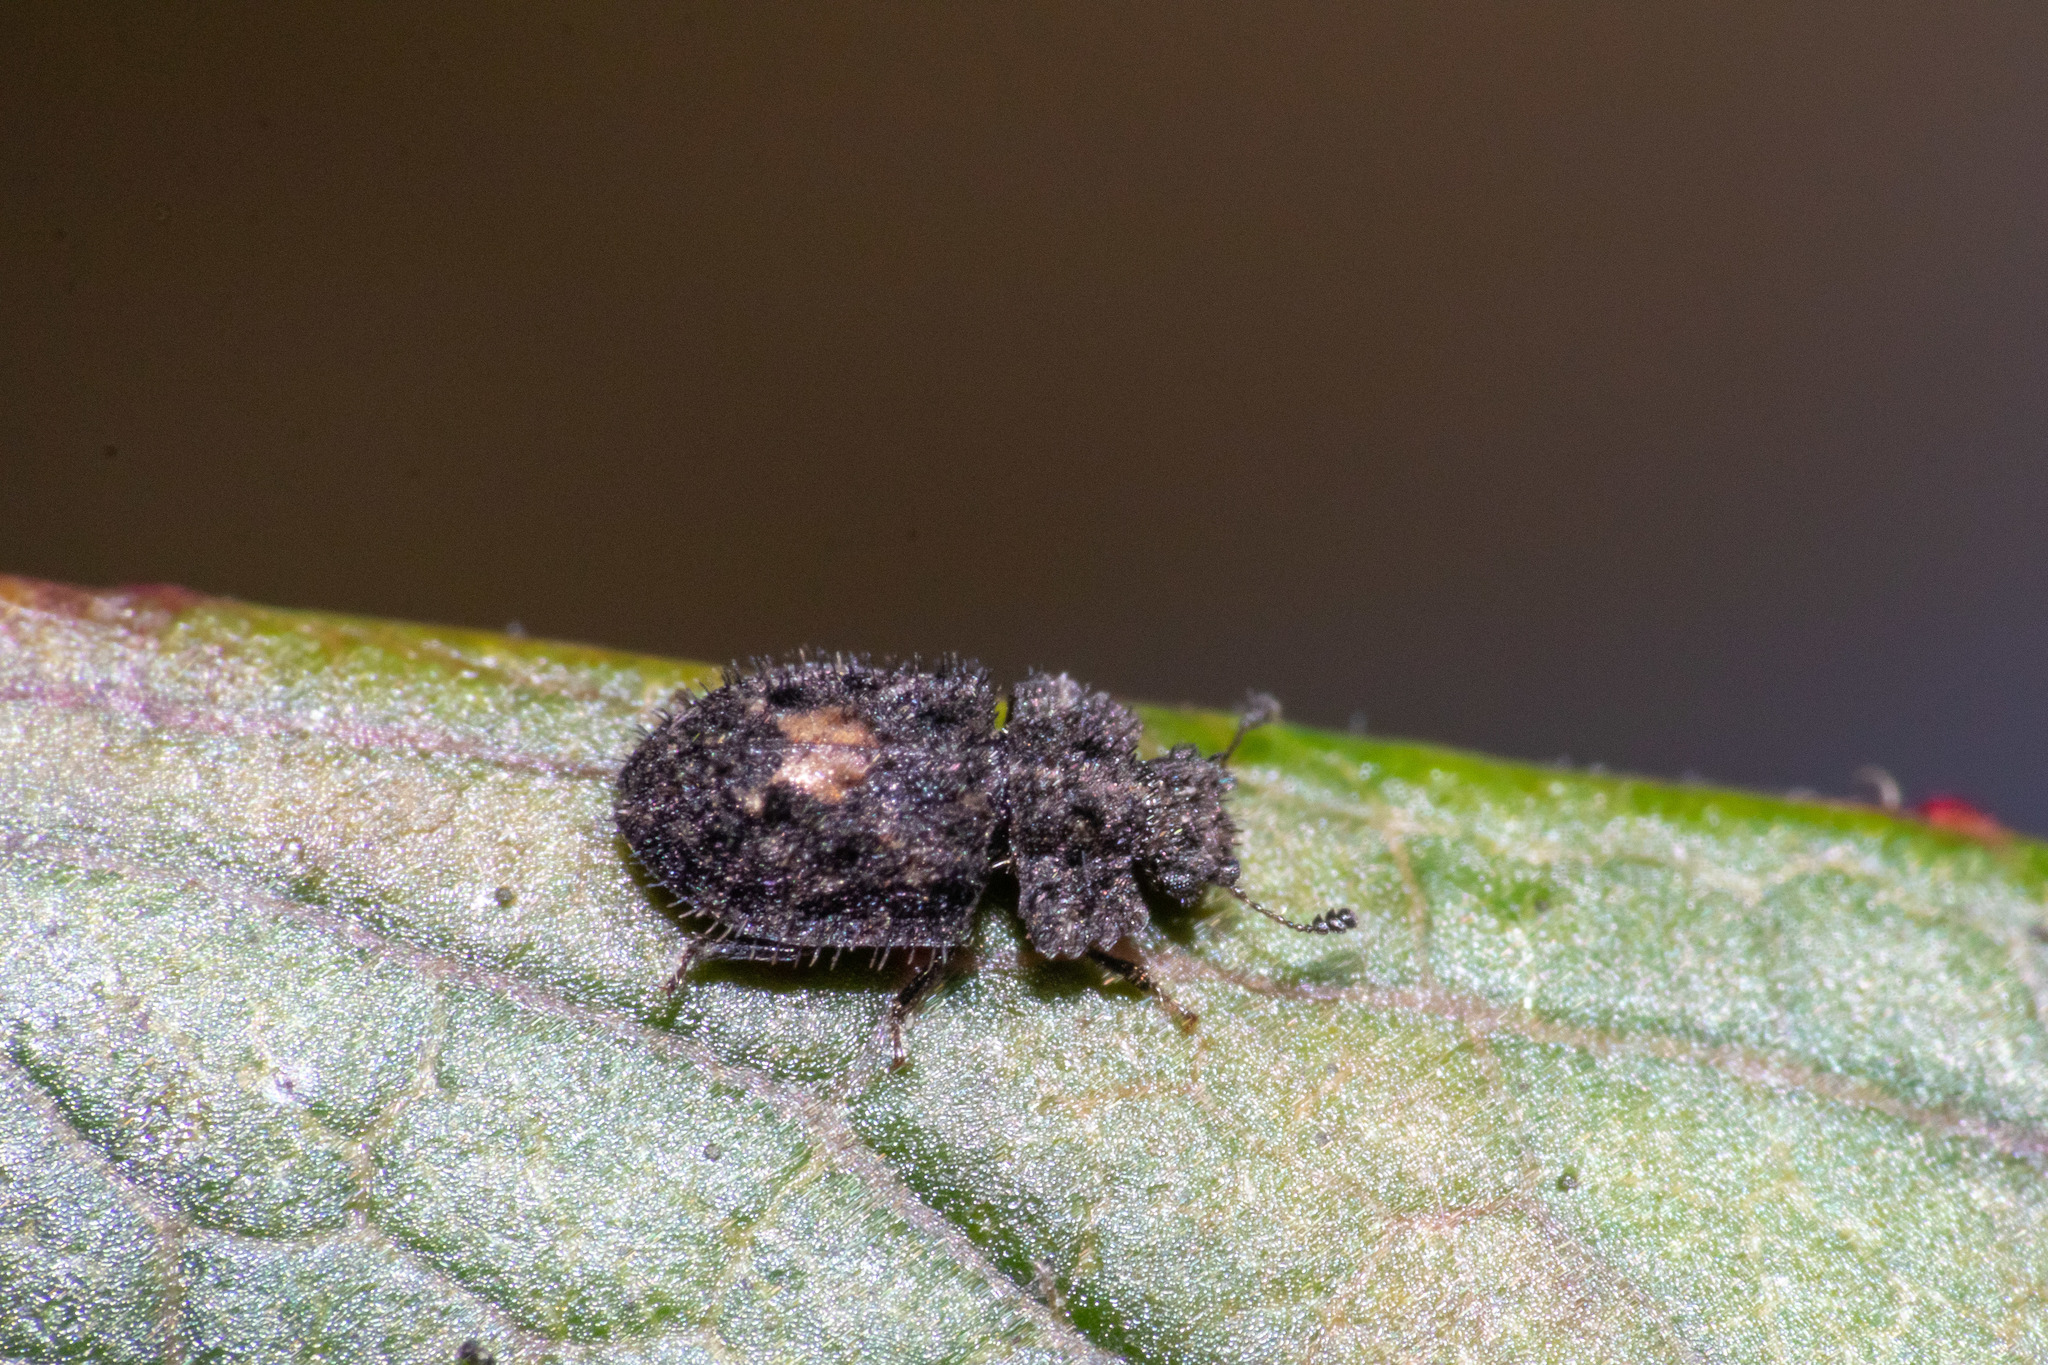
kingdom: Animalia
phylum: Arthropoda
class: Insecta
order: Coleoptera
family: Nitidulidae
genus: Hisparonia
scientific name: Hisparonia
